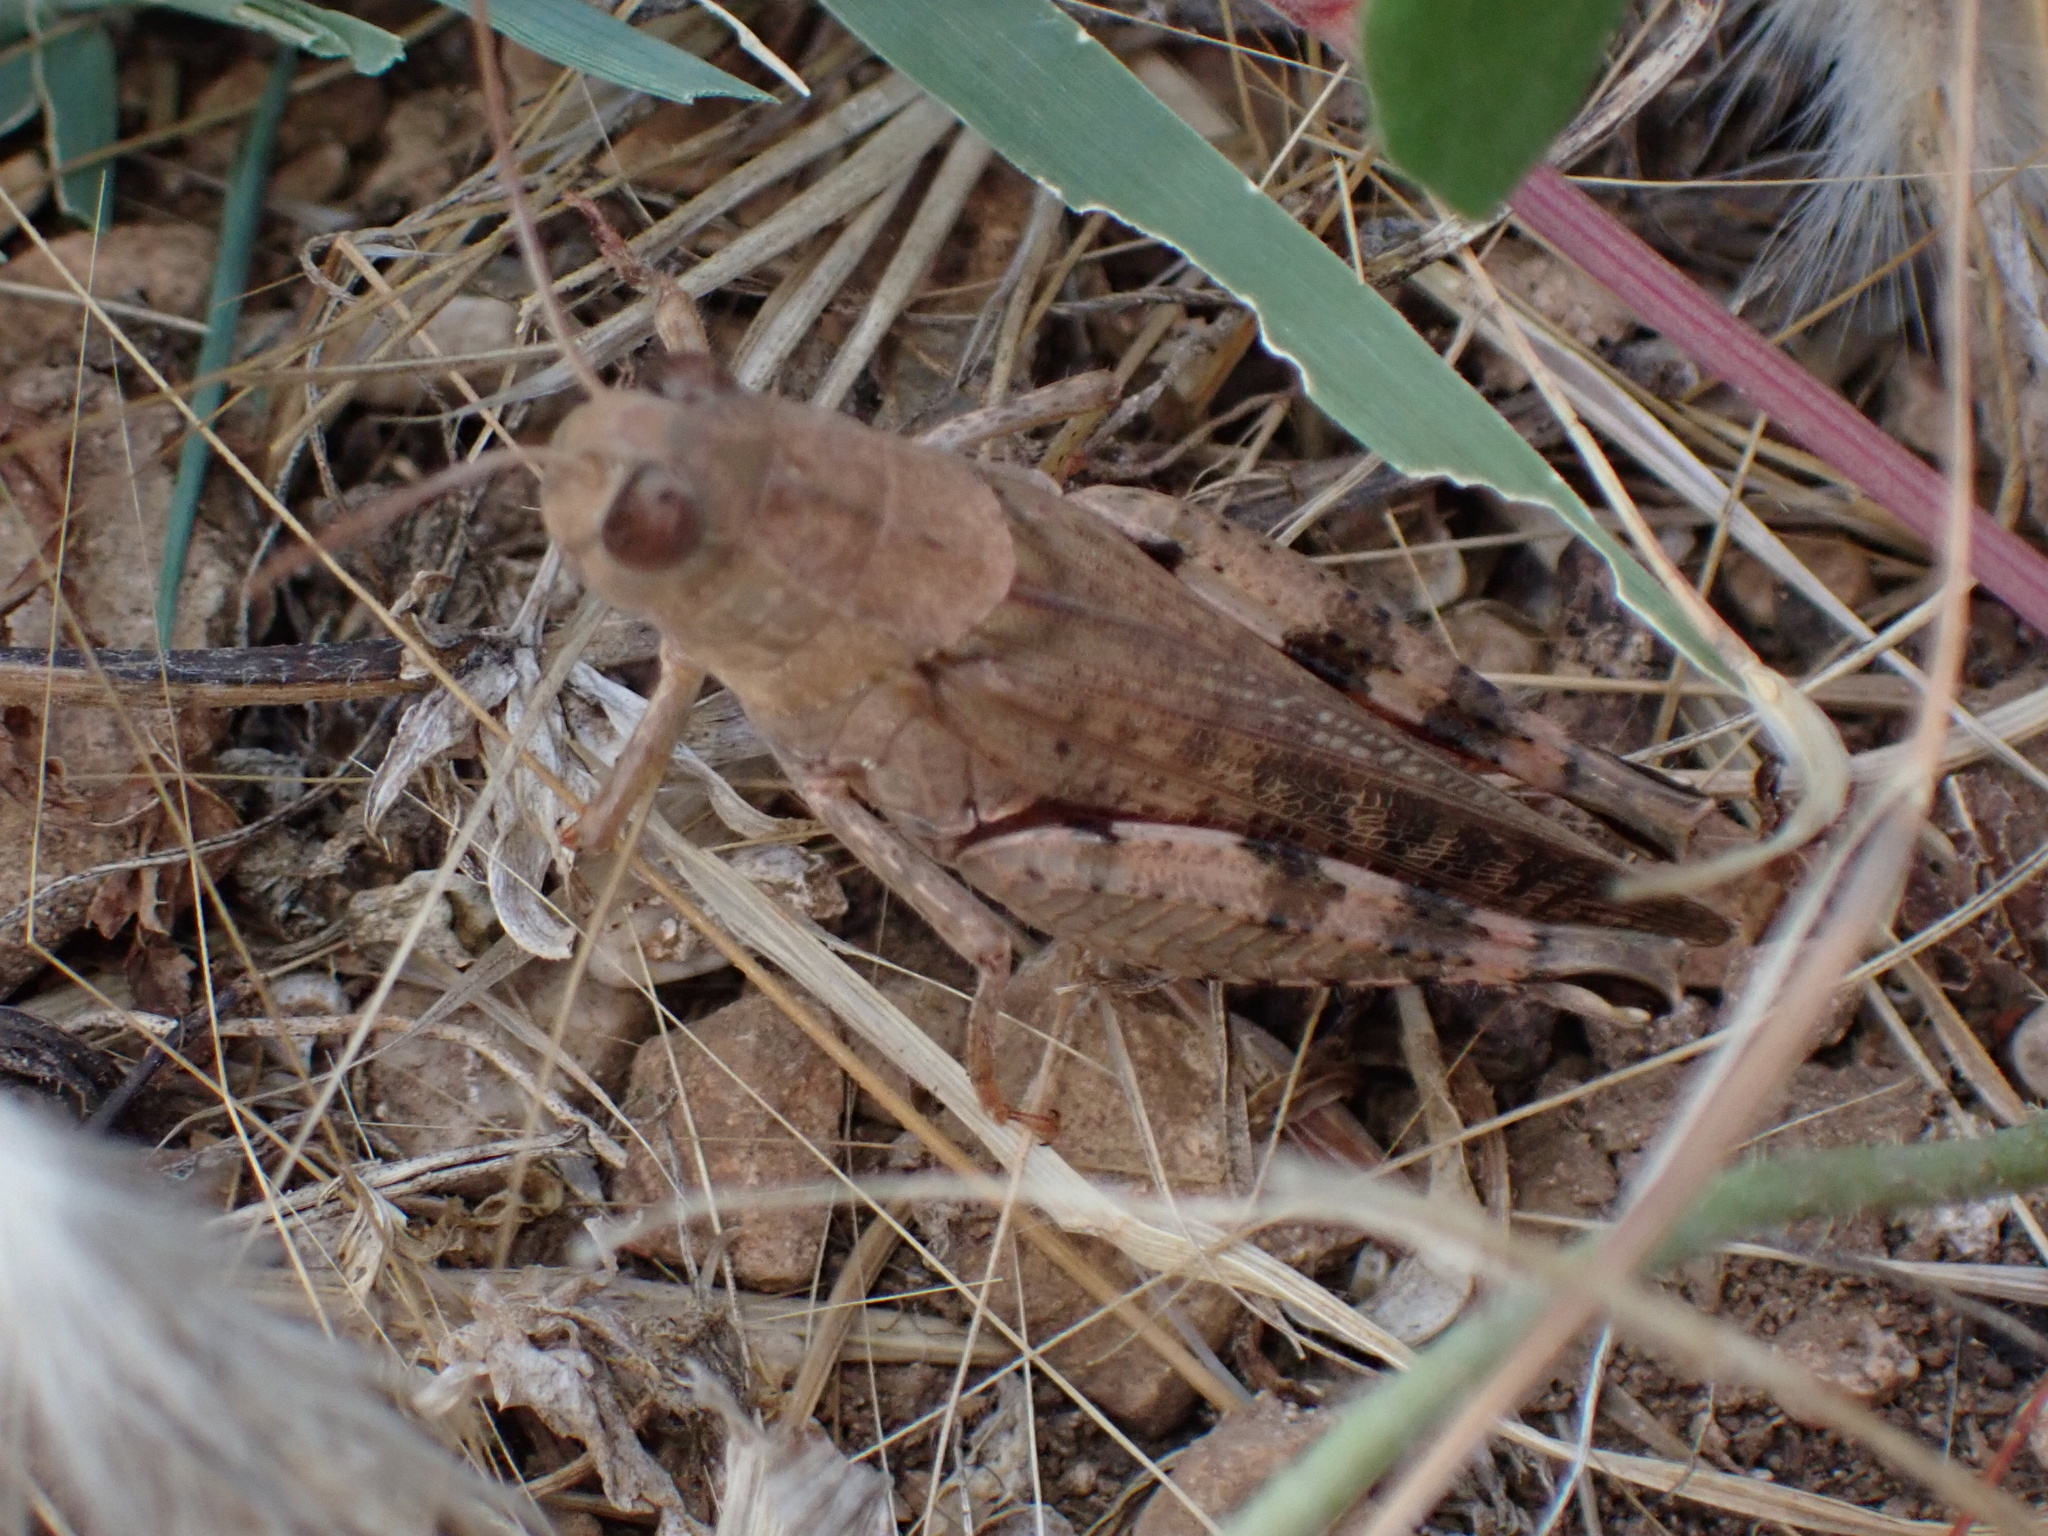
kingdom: Animalia
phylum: Arthropoda
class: Insecta
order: Orthoptera
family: Acrididae
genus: Calliptamus
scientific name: Calliptamus italicus
